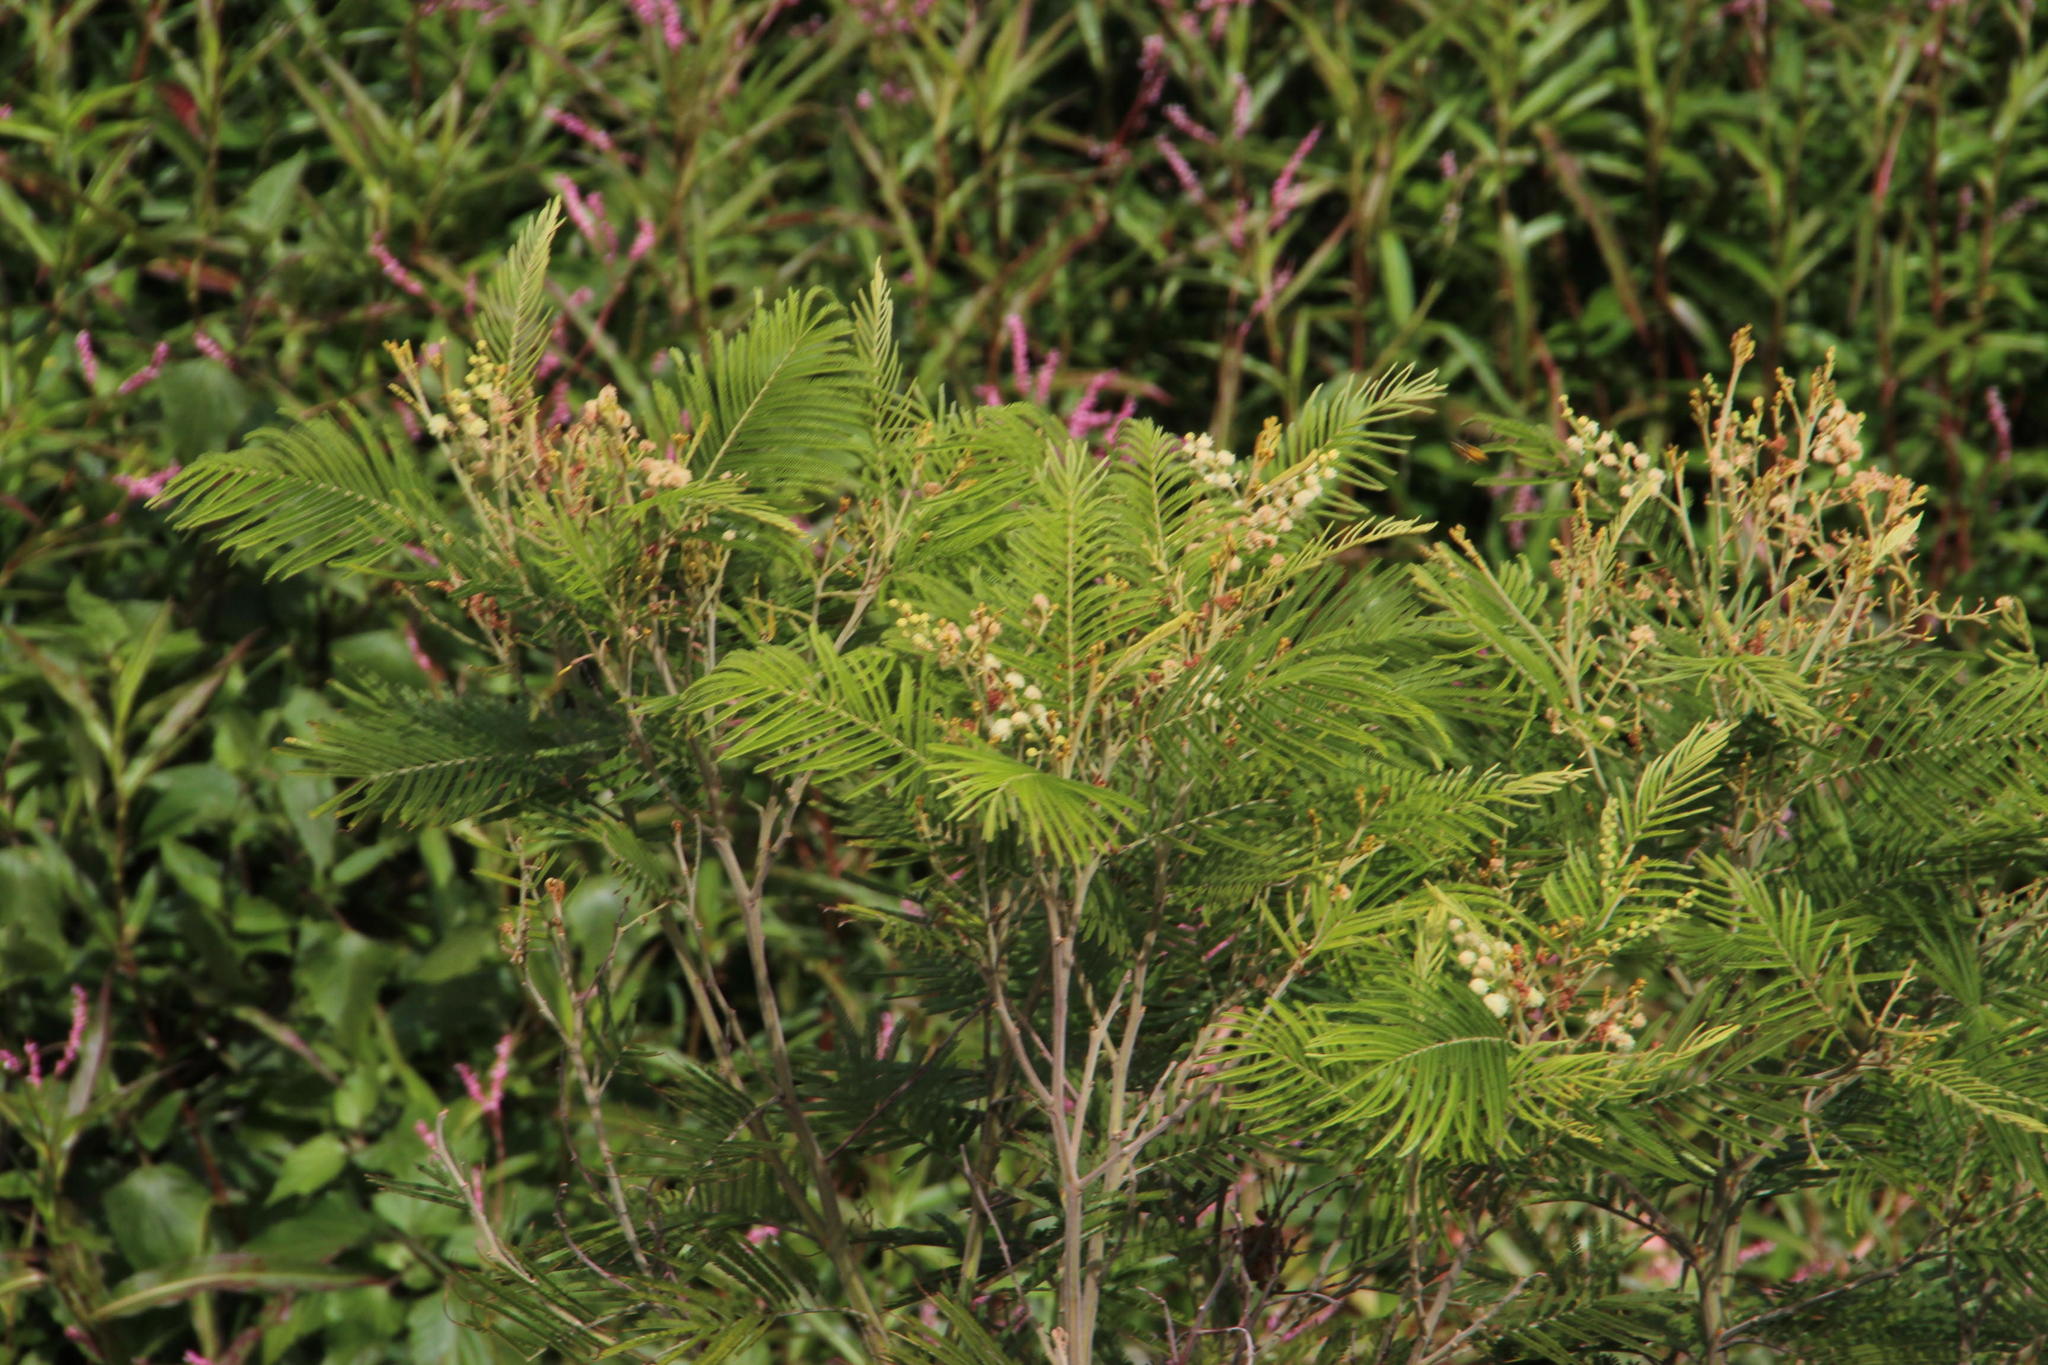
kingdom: Plantae
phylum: Tracheophyta
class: Magnoliopsida
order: Fabales
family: Fabaceae
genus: Acacia
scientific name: Acacia mearnsii
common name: Black wattle
